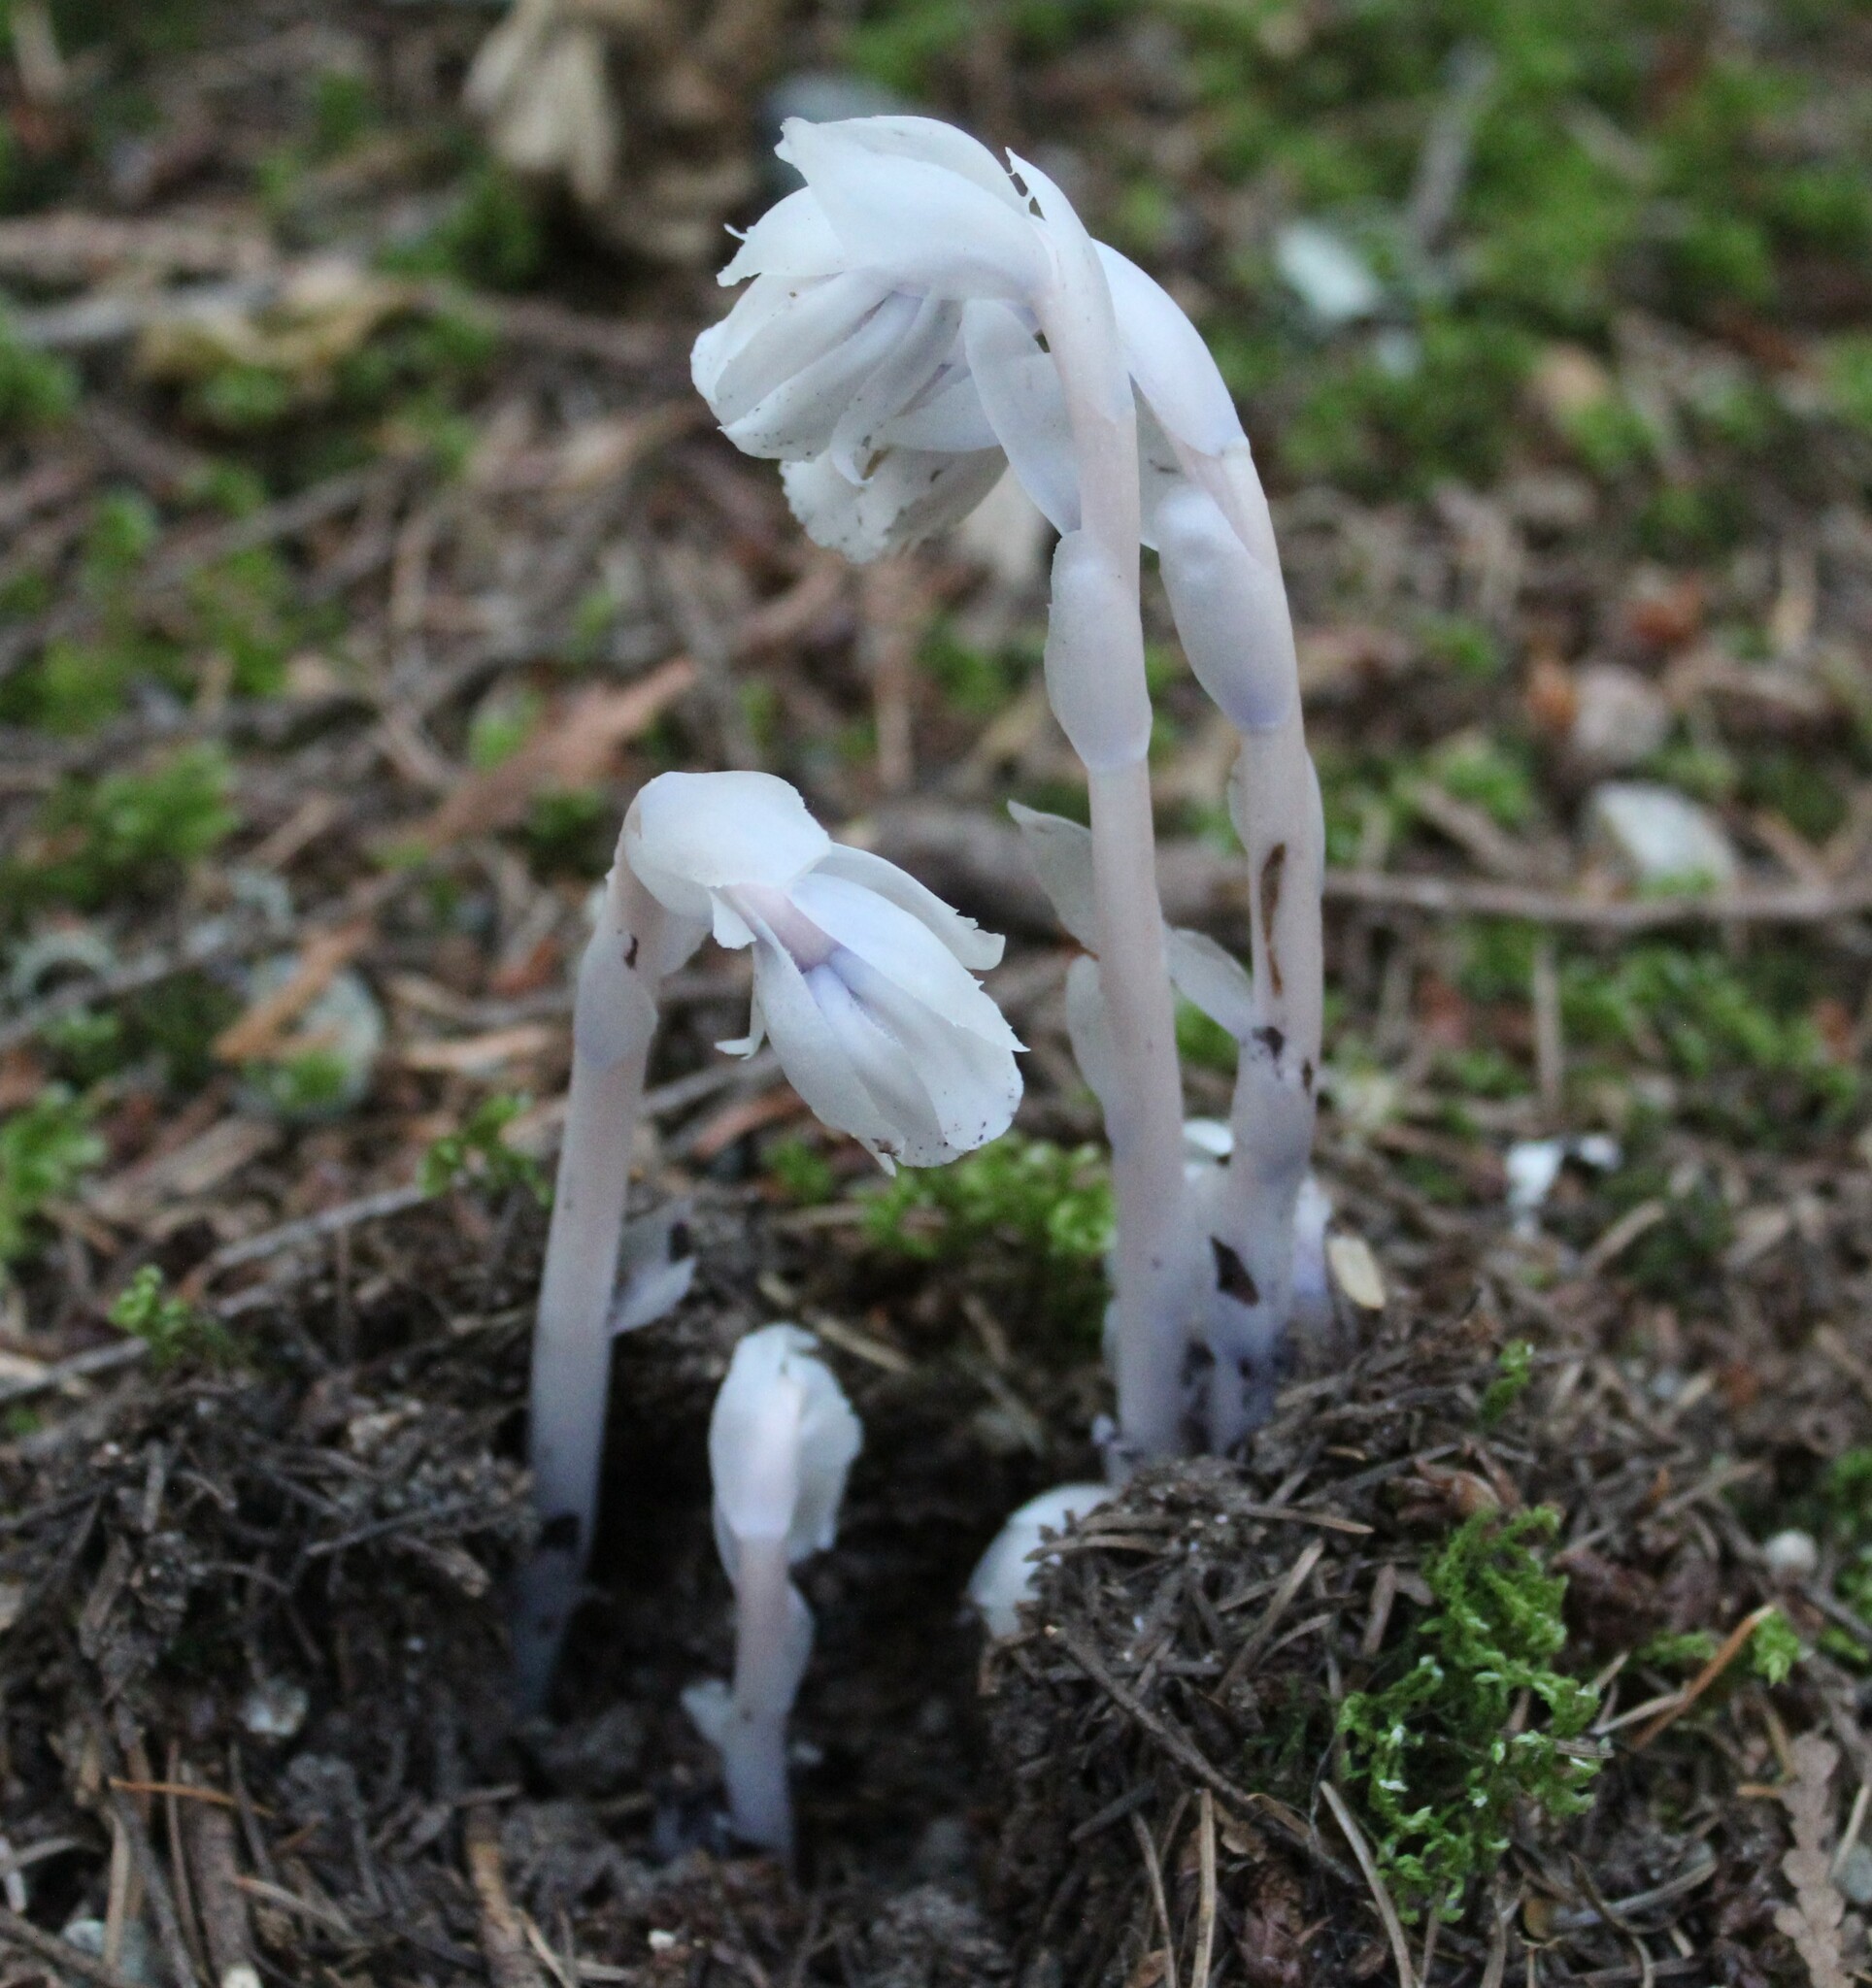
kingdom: Plantae
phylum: Tracheophyta
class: Magnoliopsida
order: Ericales
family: Ericaceae
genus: Monotropa
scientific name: Monotropa uniflora
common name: Convulsion root
